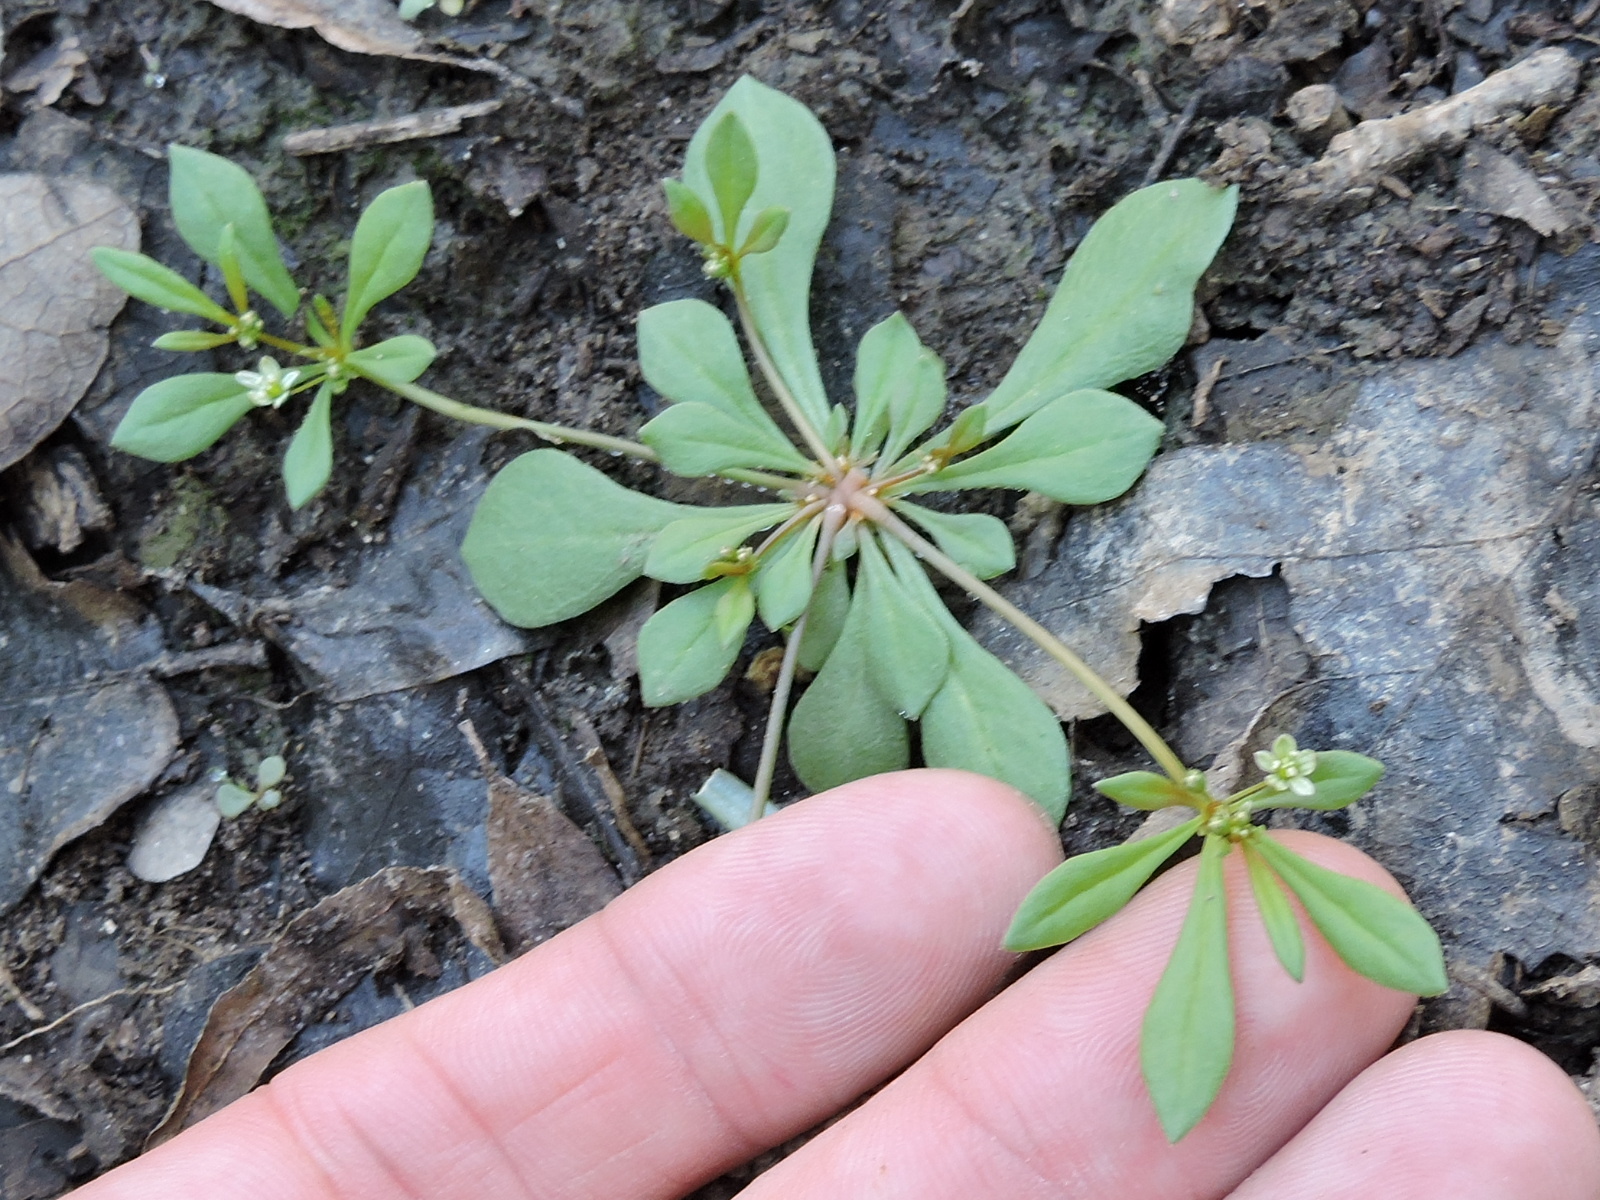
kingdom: Plantae
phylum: Tracheophyta
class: Magnoliopsida
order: Caryophyllales
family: Molluginaceae
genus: Mollugo
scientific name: Mollugo verticillata
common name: Green carpetweed
